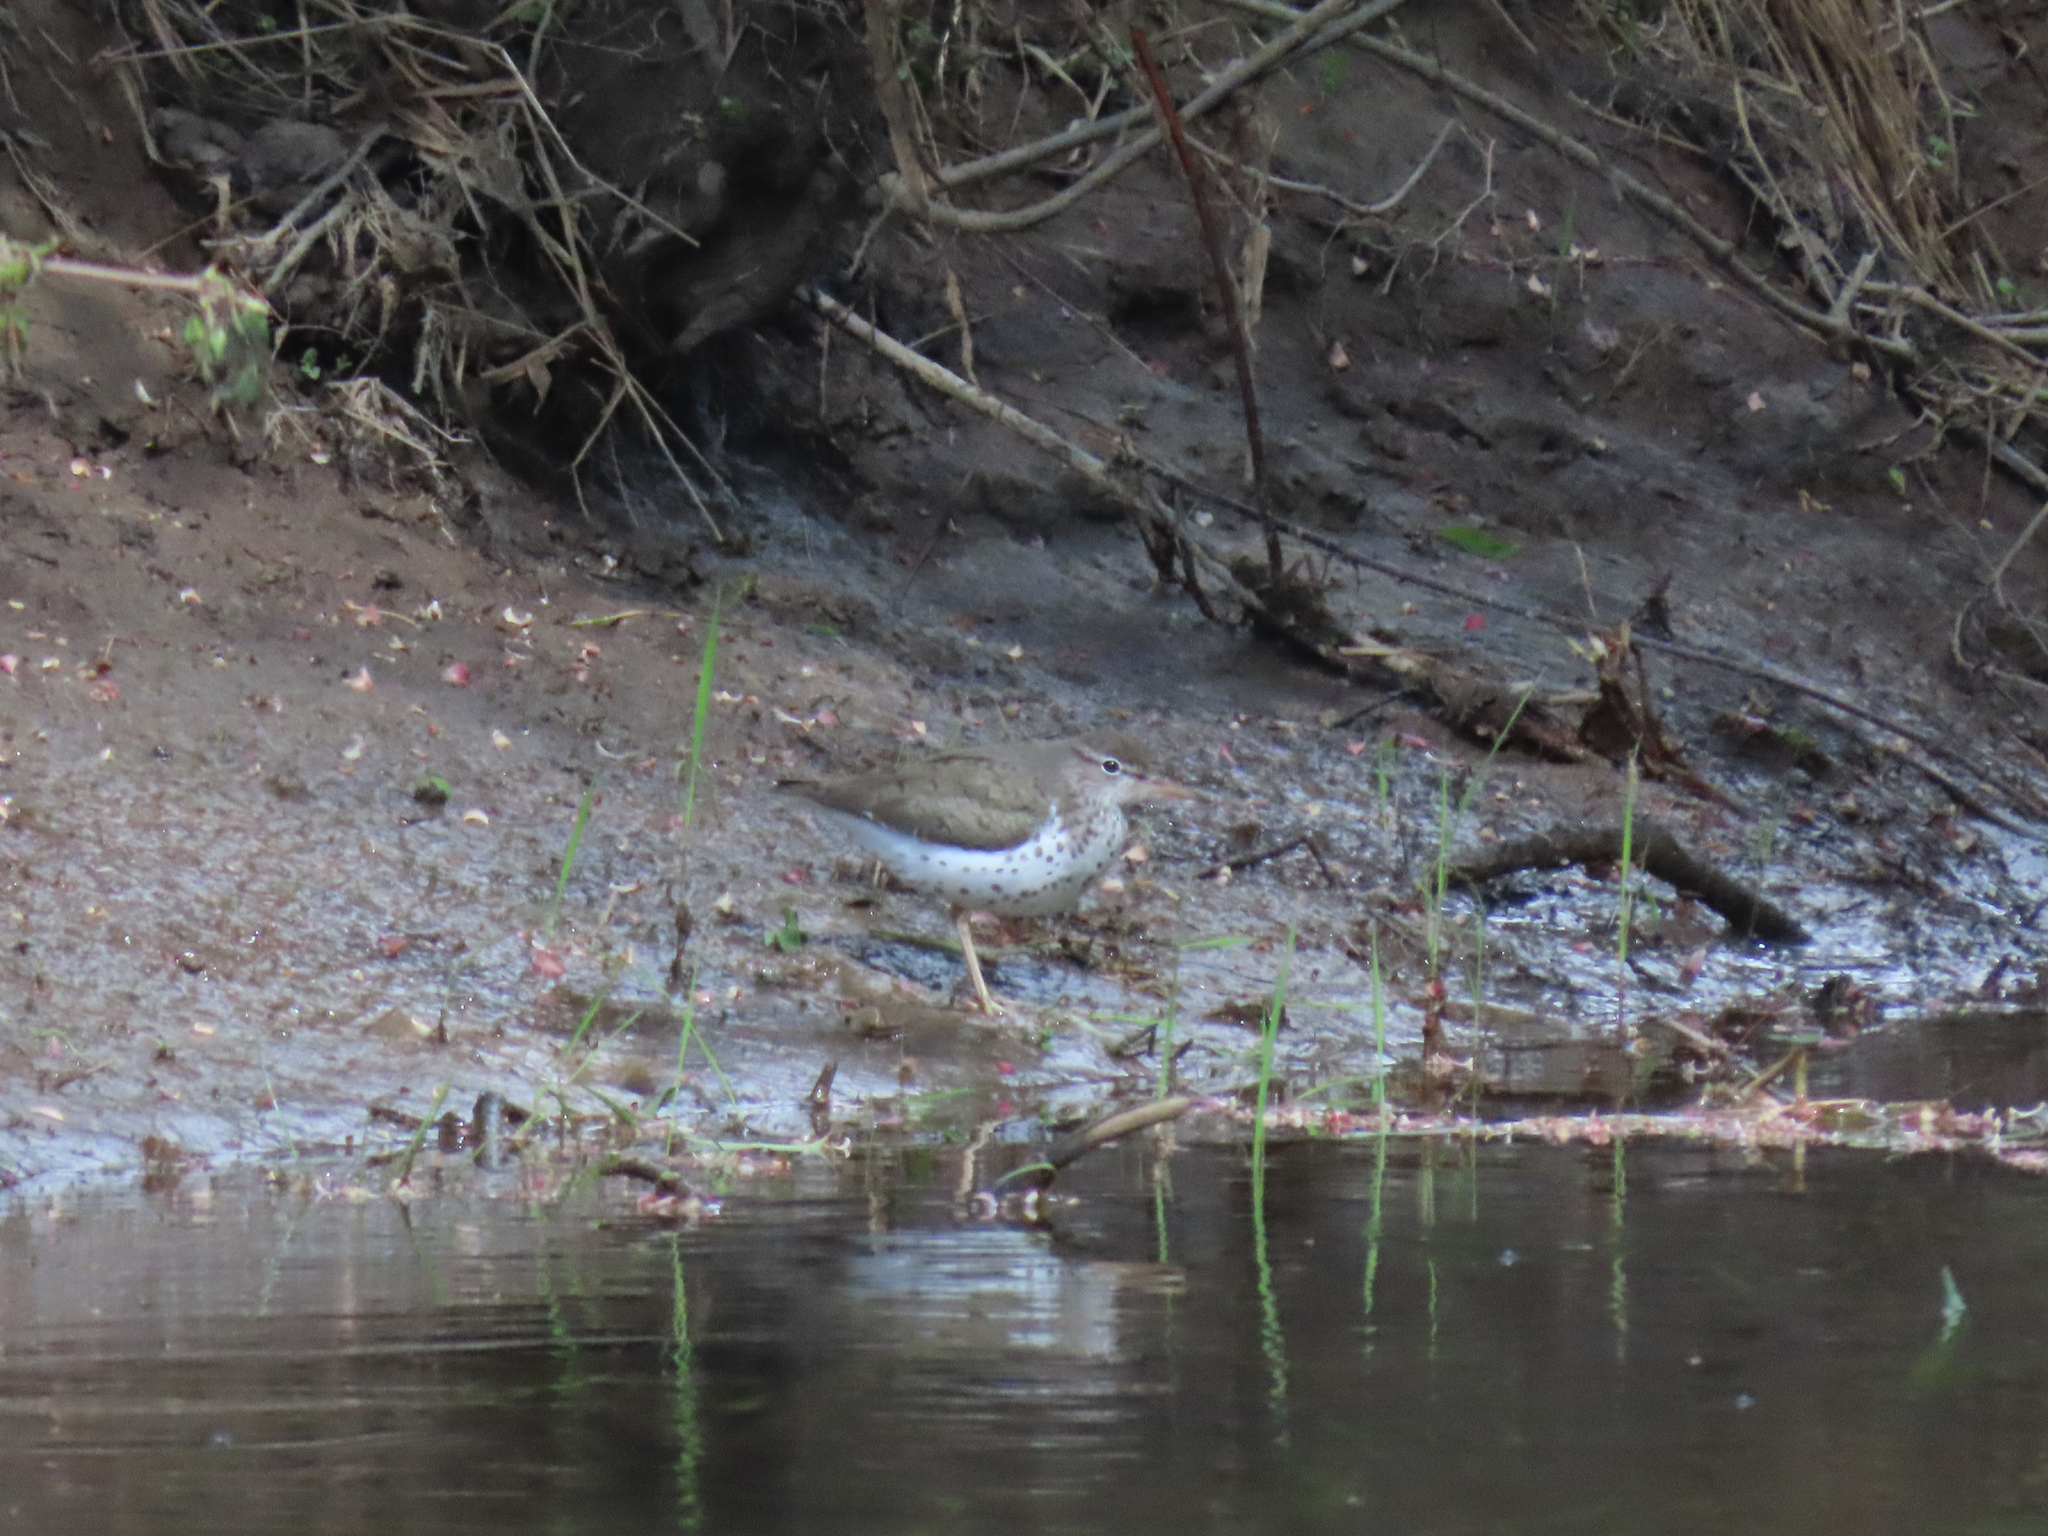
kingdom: Animalia
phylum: Chordata
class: Aves
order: Charadriiformes
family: Scolopacidae
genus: Actitis
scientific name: Actitis macularius
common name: Spotted sandpiper
